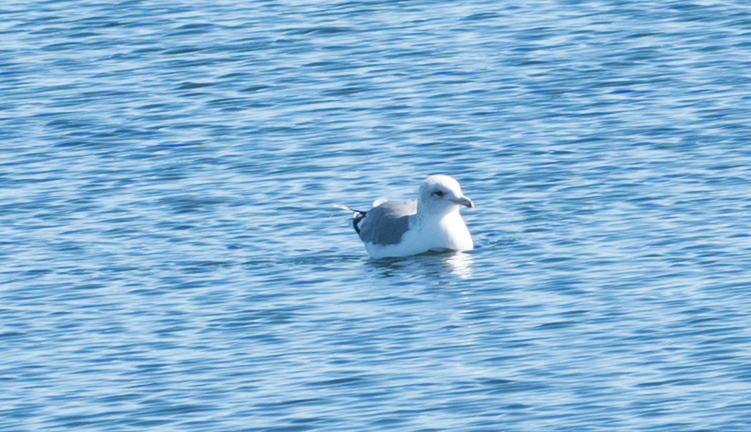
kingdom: Animalia
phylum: Chordata
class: Aves
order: Charadriiformes
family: Laridae
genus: Larus
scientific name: Larus brachyrhynchus
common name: Short-billed gull
